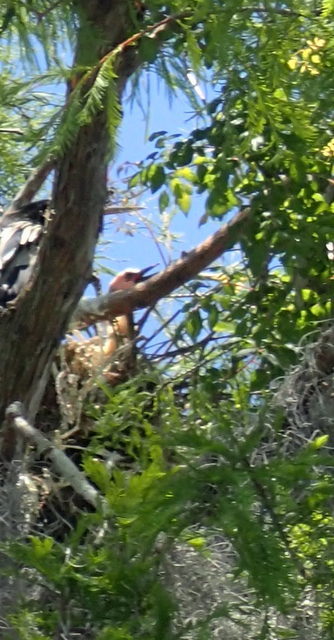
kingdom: Animalia
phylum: Chordata
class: Aves
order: Suliformes
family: Anhingidae
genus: Anhinga
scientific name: Anhinga anhinga
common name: Anhinga
